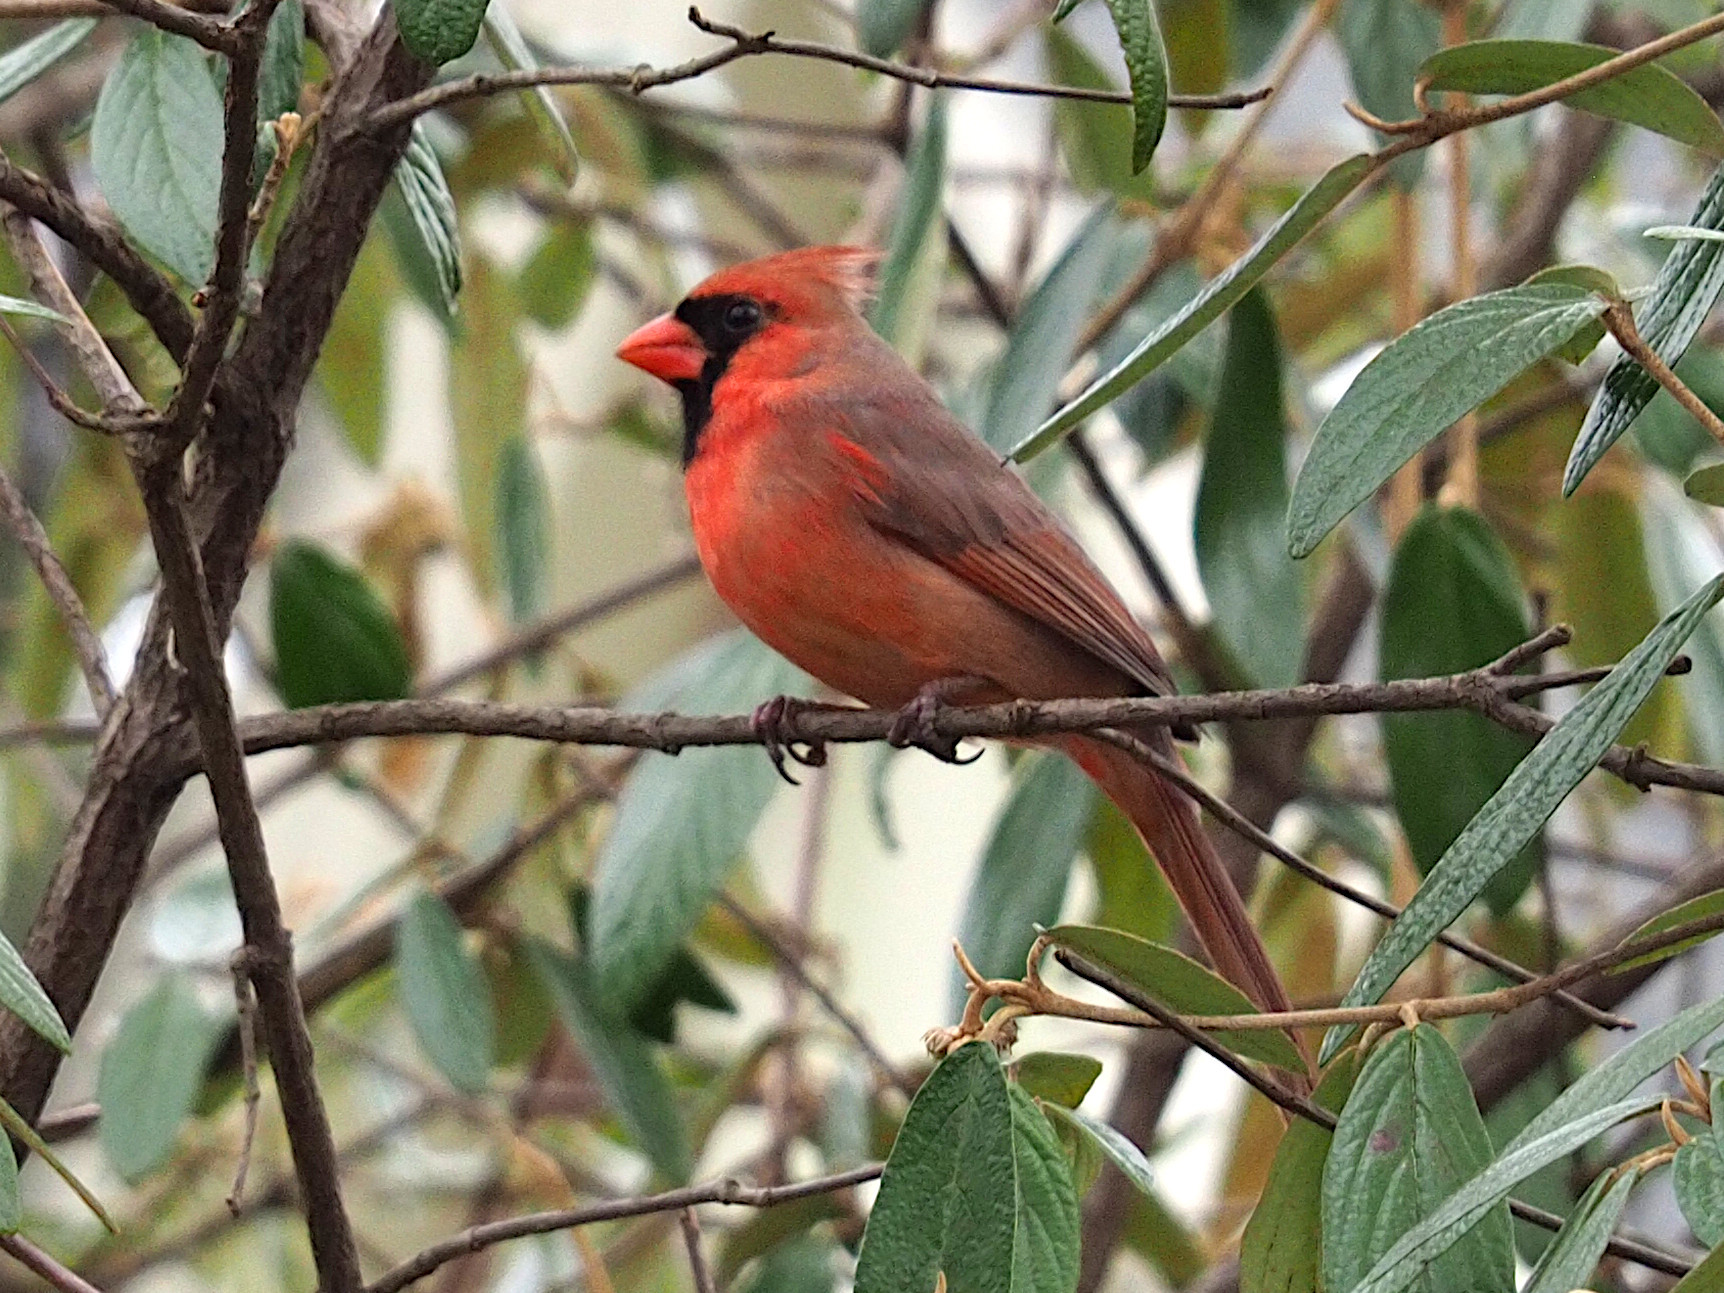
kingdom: Animalia
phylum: Chordata
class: Aves
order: Passeriformes
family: Cardinalidae
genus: Cardinalis
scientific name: Cardinalis cardinalis
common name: Northern cardinal
